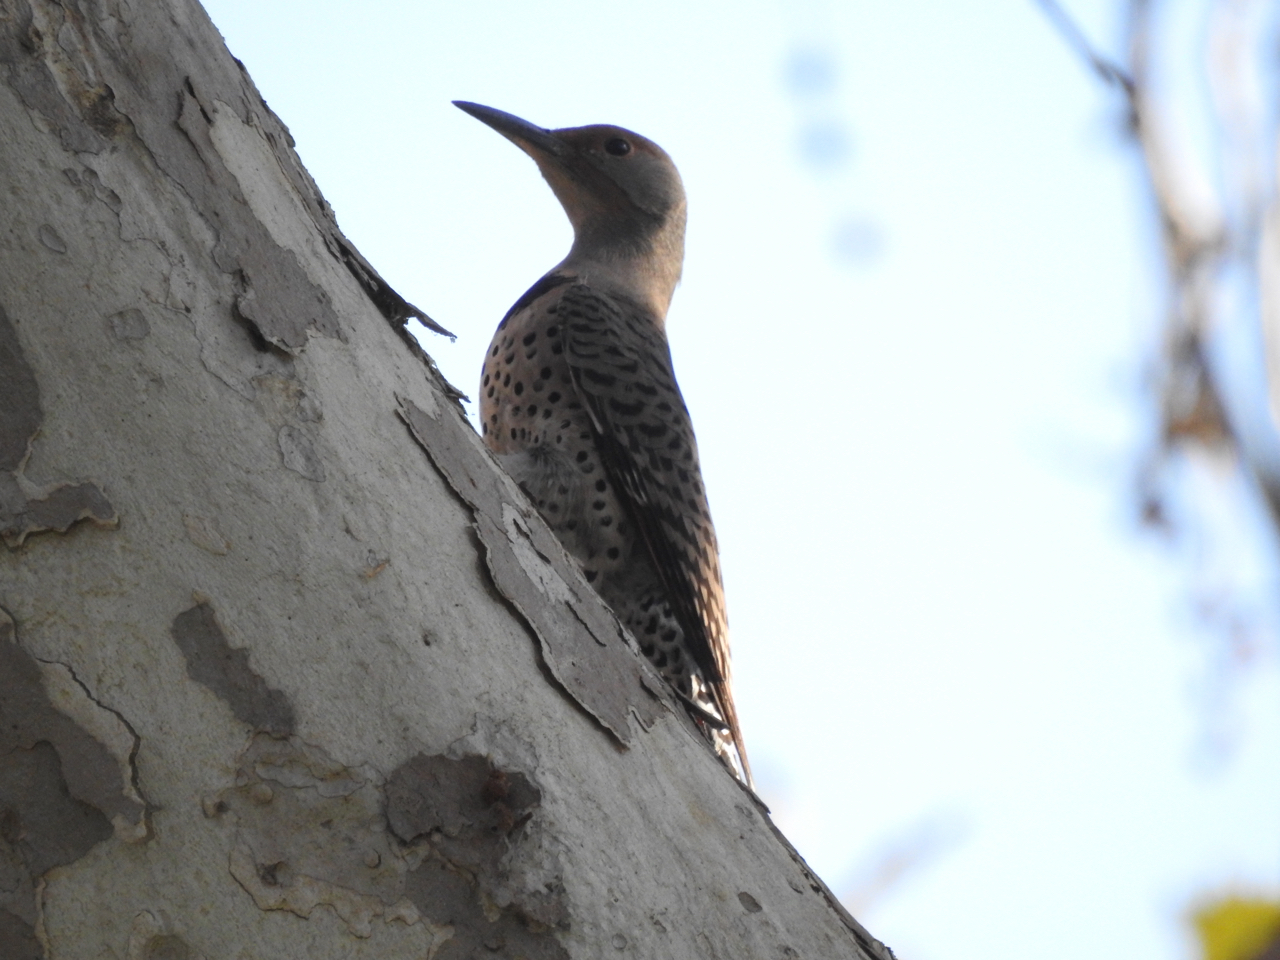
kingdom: Animalia
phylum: Chordata
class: Aves
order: Piciformes
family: Picidae
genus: Colaptes
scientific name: Colaptes auratus
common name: Northern flicker
